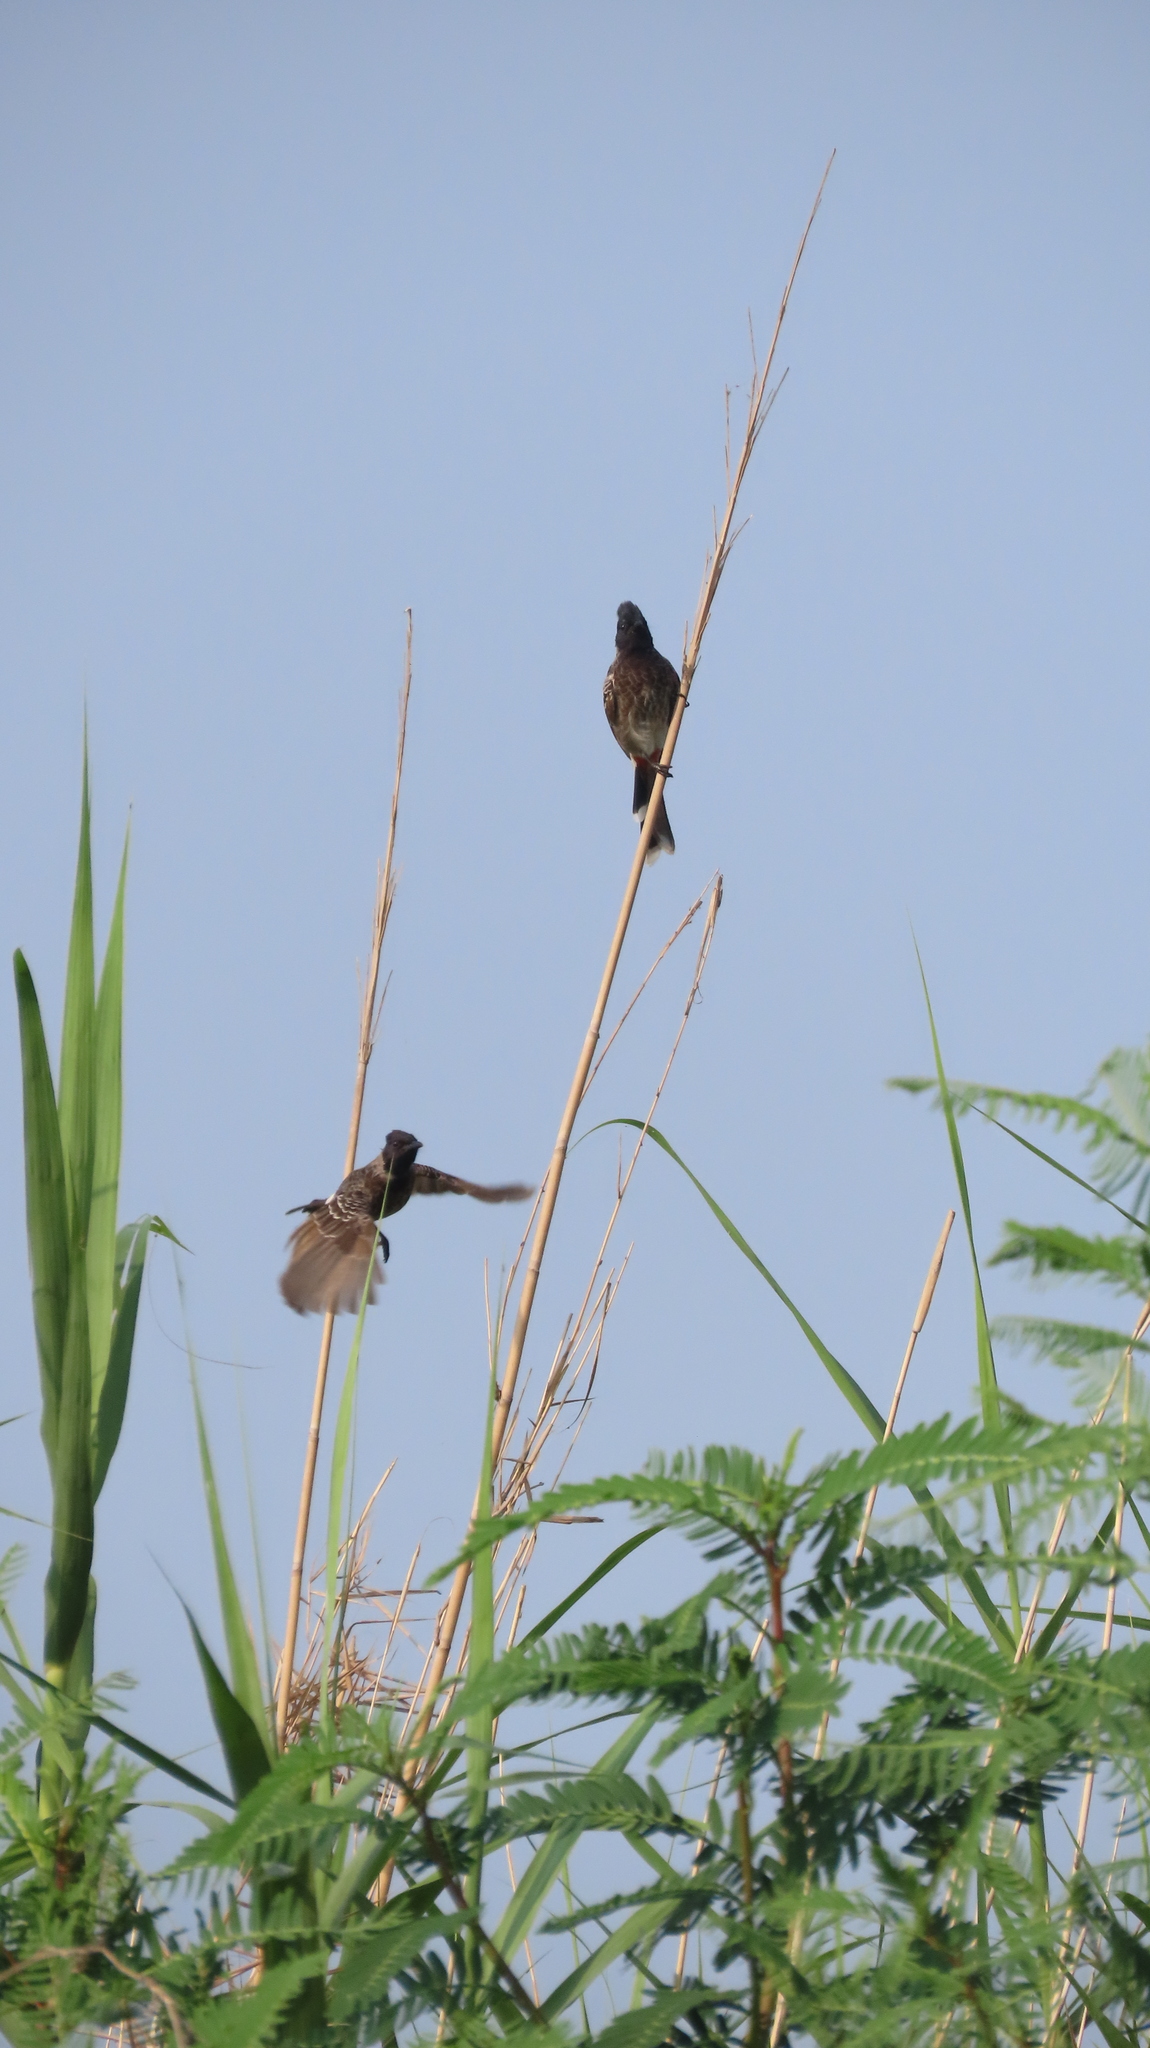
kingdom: Animalia
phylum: Chordata
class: Aves
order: Passeriformes
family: Pycnonotidae
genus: Pycnonotus
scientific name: Pycnonotus cafer
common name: Red-vented bulbul
